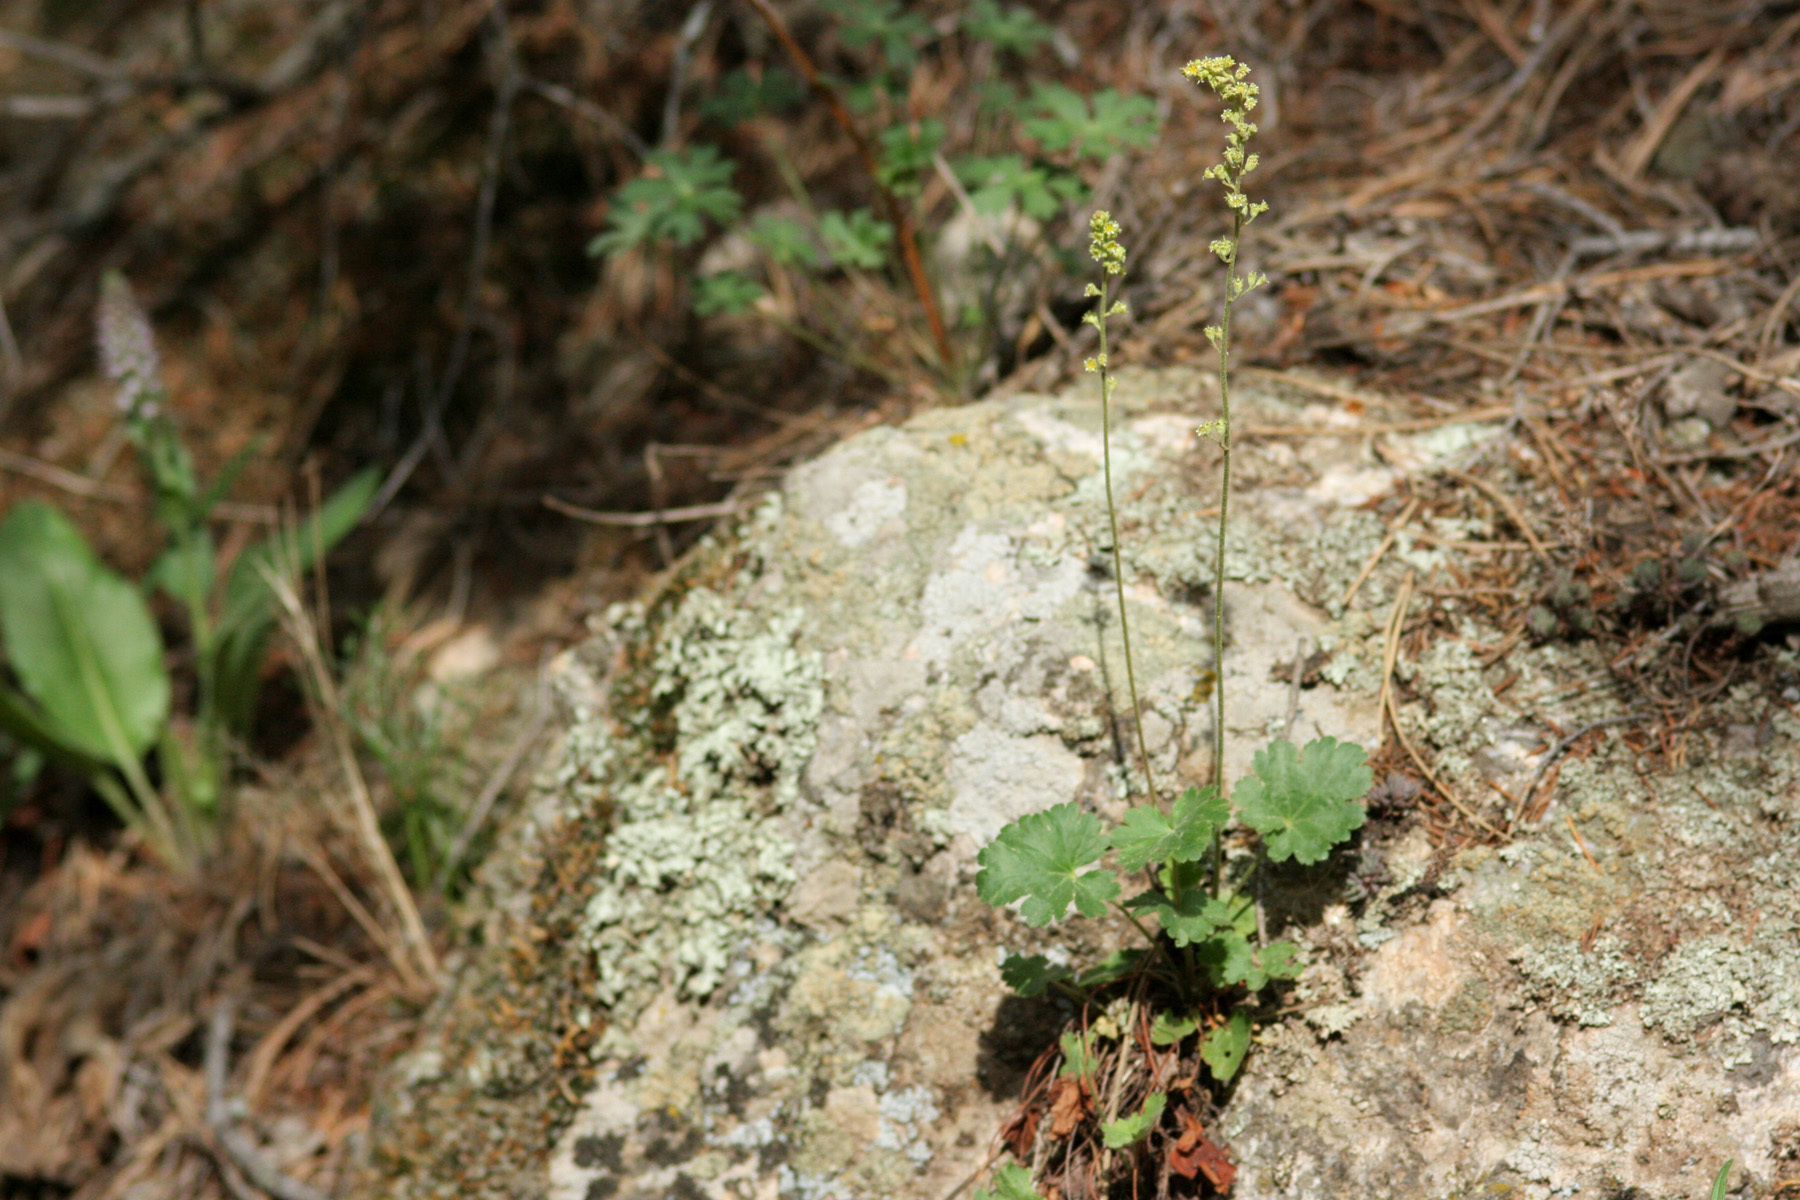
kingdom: Plantae
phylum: Tracheophyta
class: Magnoliopsida
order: Saxifragales
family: Saxifragaceae
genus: Heuchera
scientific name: Heuchera parvifolia
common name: Common alumroot
